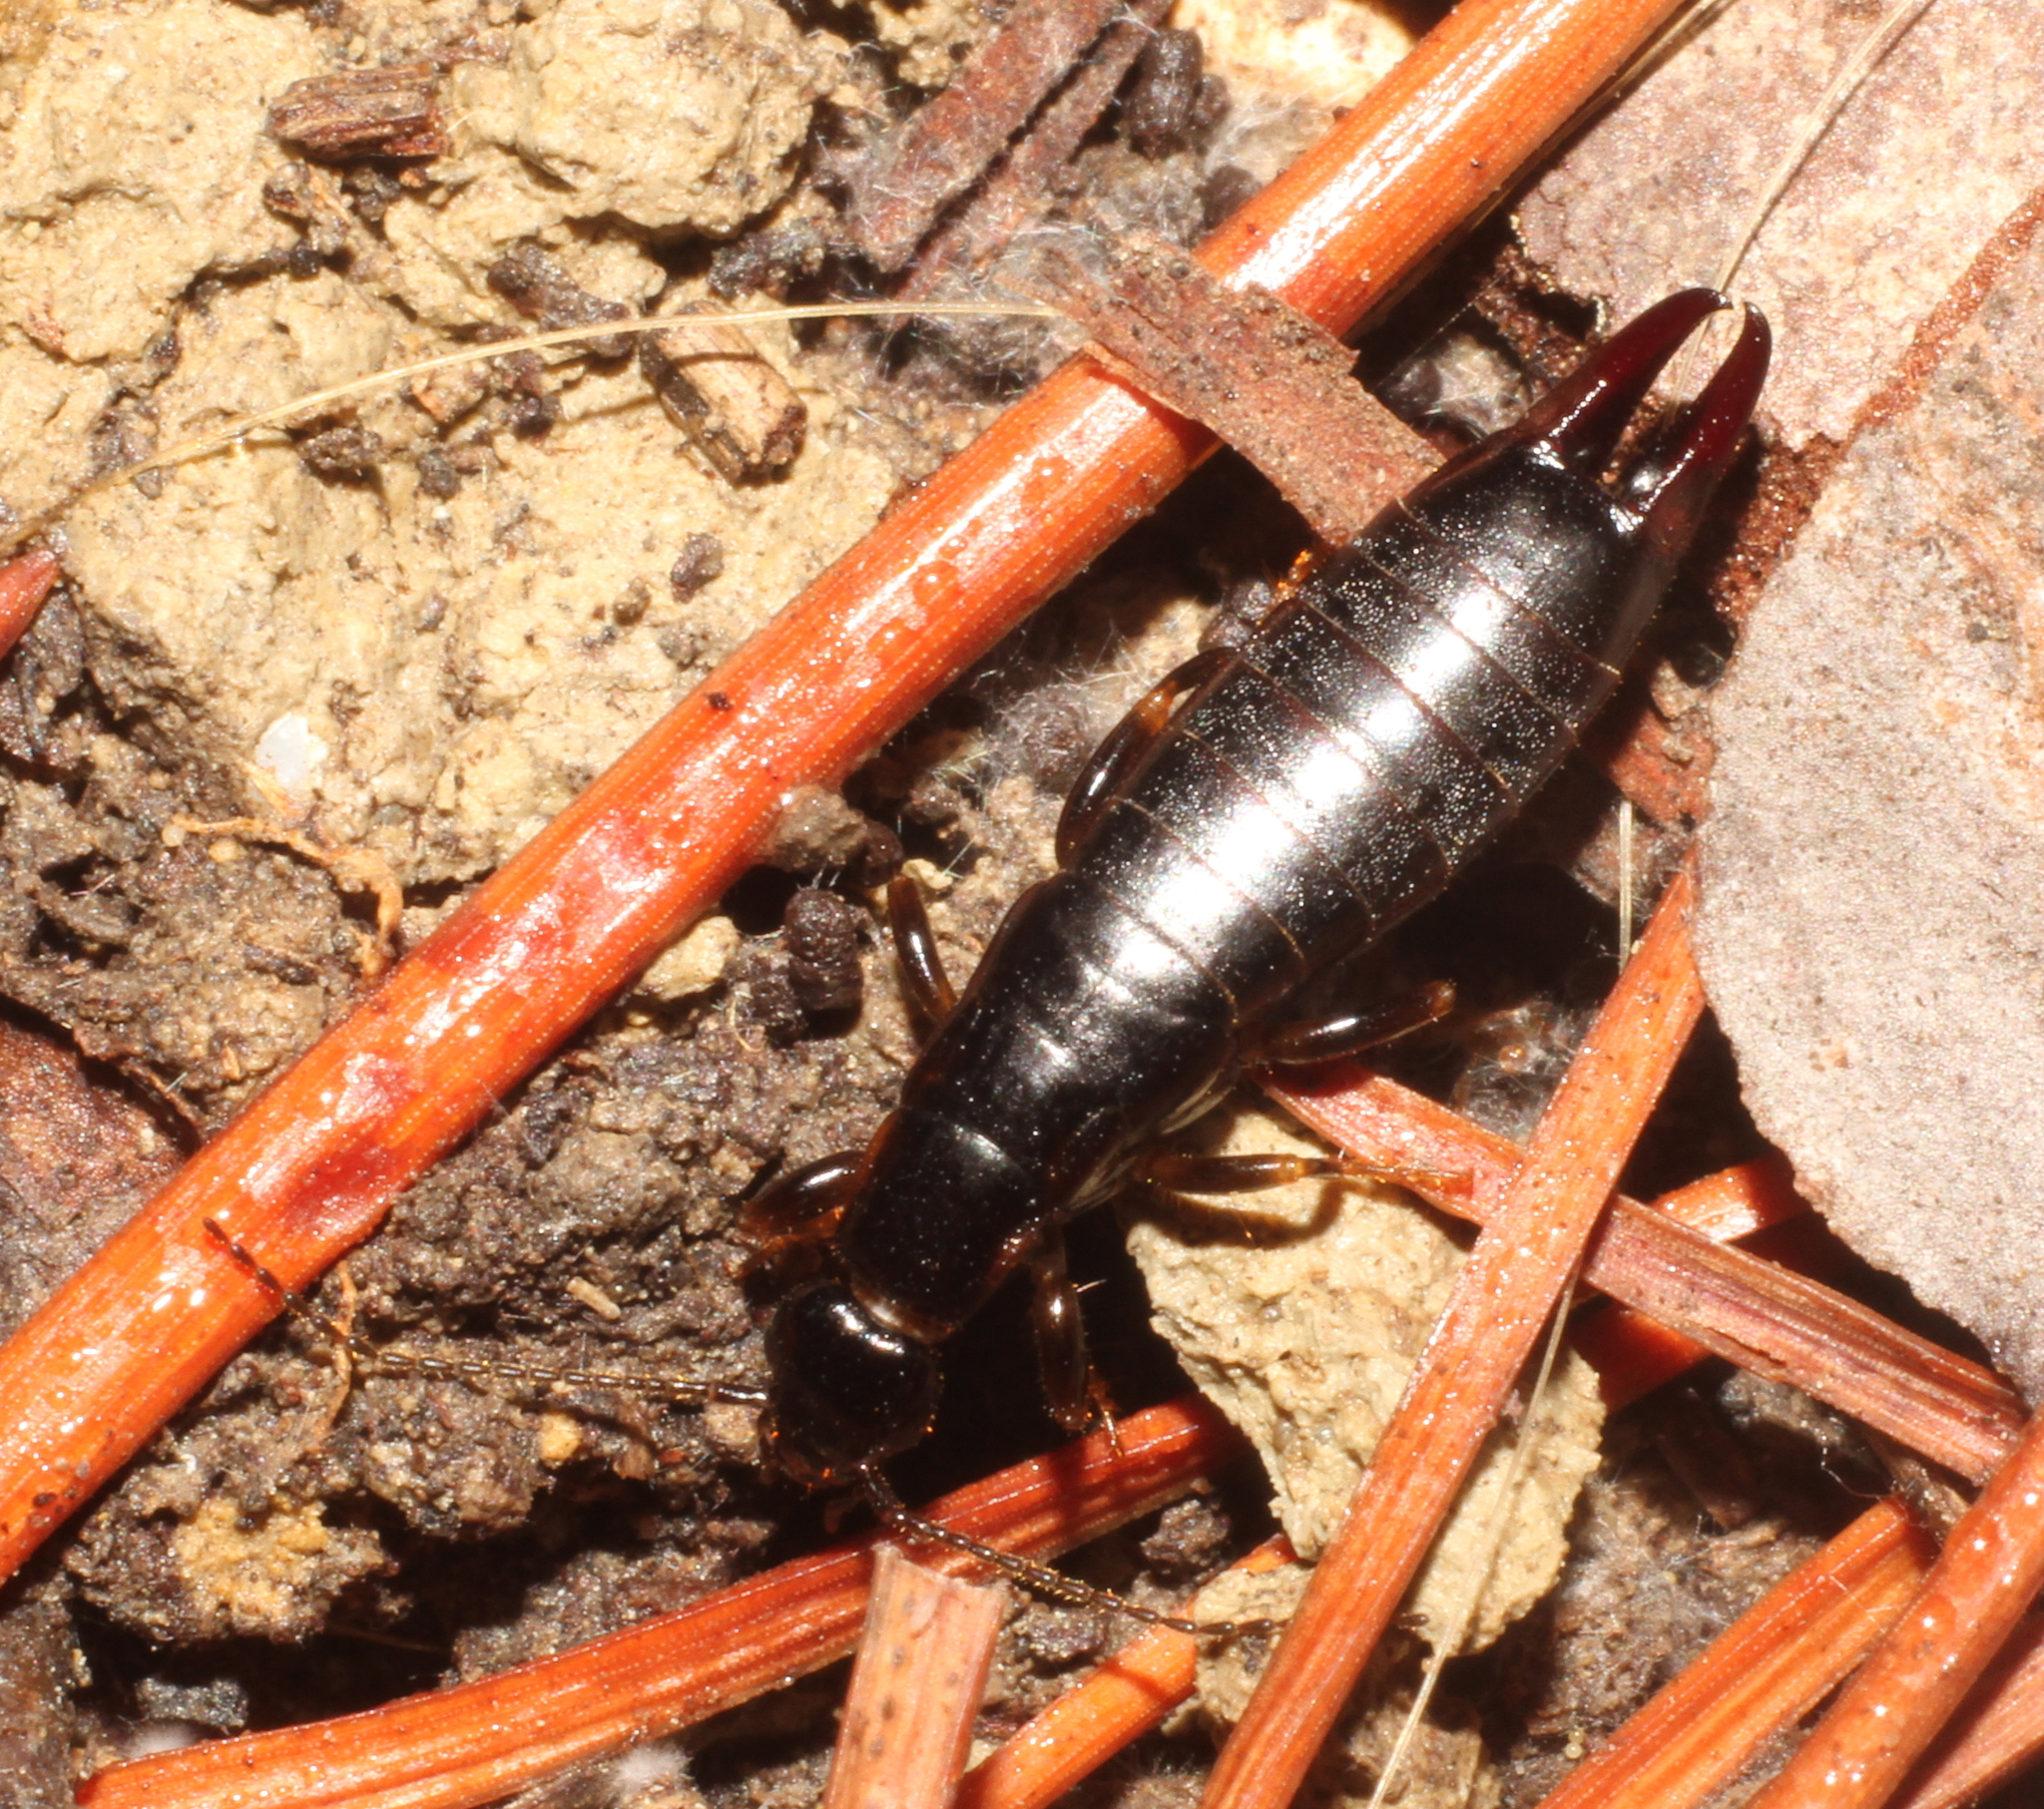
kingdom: Animalia
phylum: Arthropoda
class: Insecta
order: Dermaptera
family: Anisolabididae
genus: Euborellia
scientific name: Euborellia moesta
